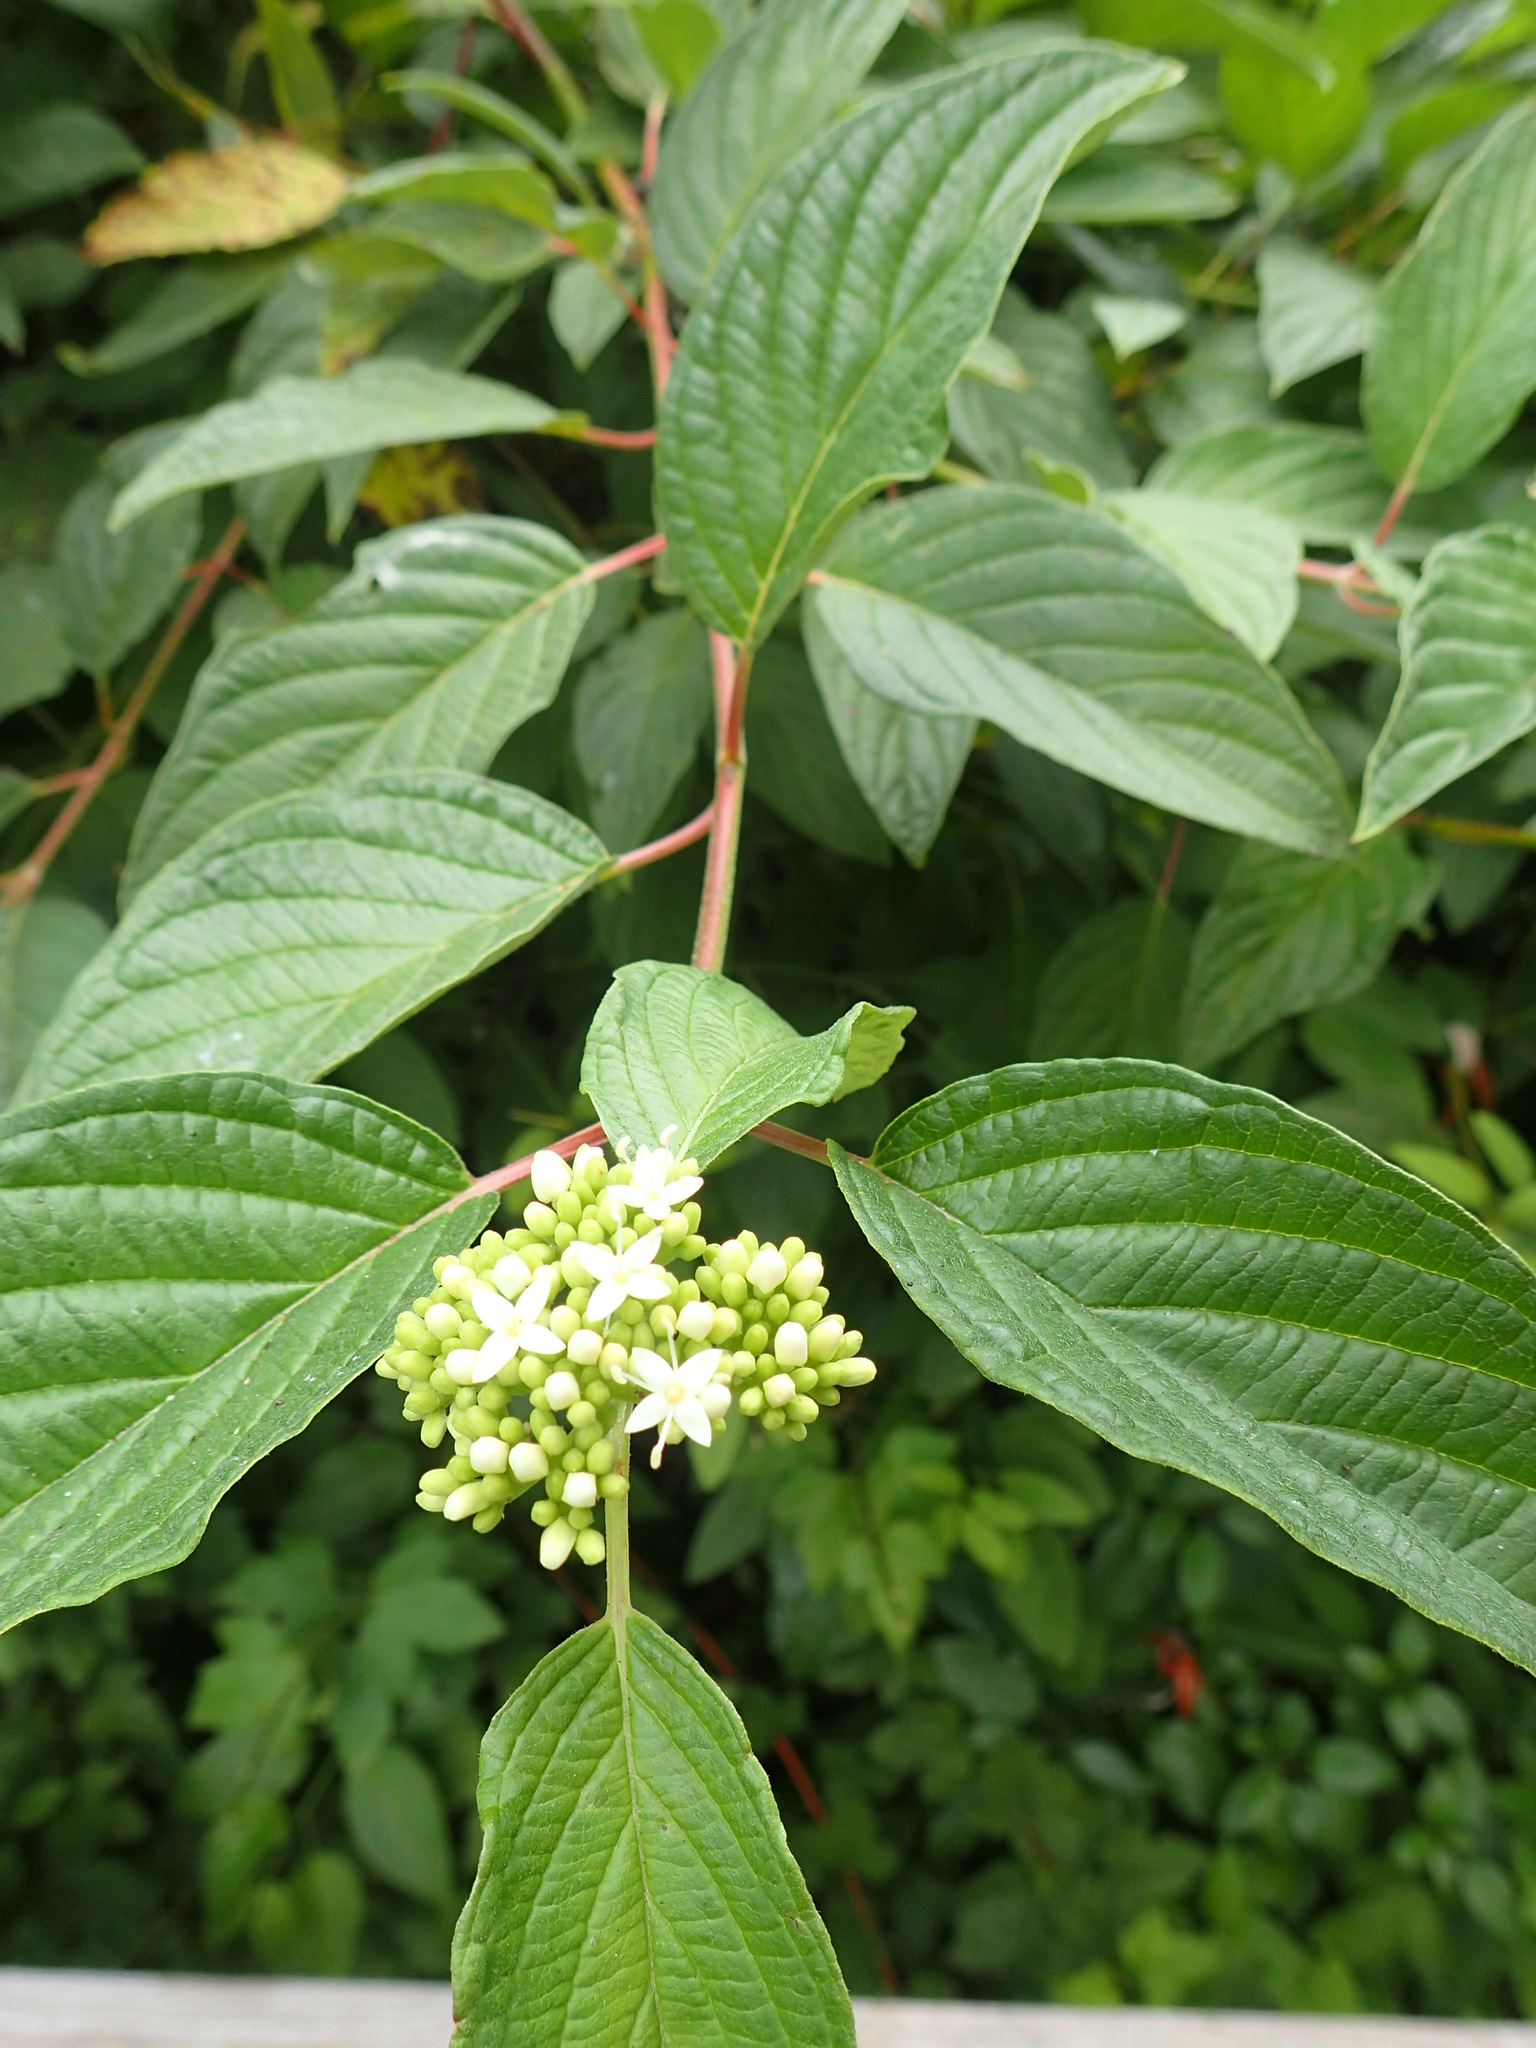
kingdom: Plantae
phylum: Tracheophyta
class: Magnoliopsida
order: Cornales
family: Cornaceae
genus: Cornus
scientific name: Cornus sericea
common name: Red-osier dogwood
